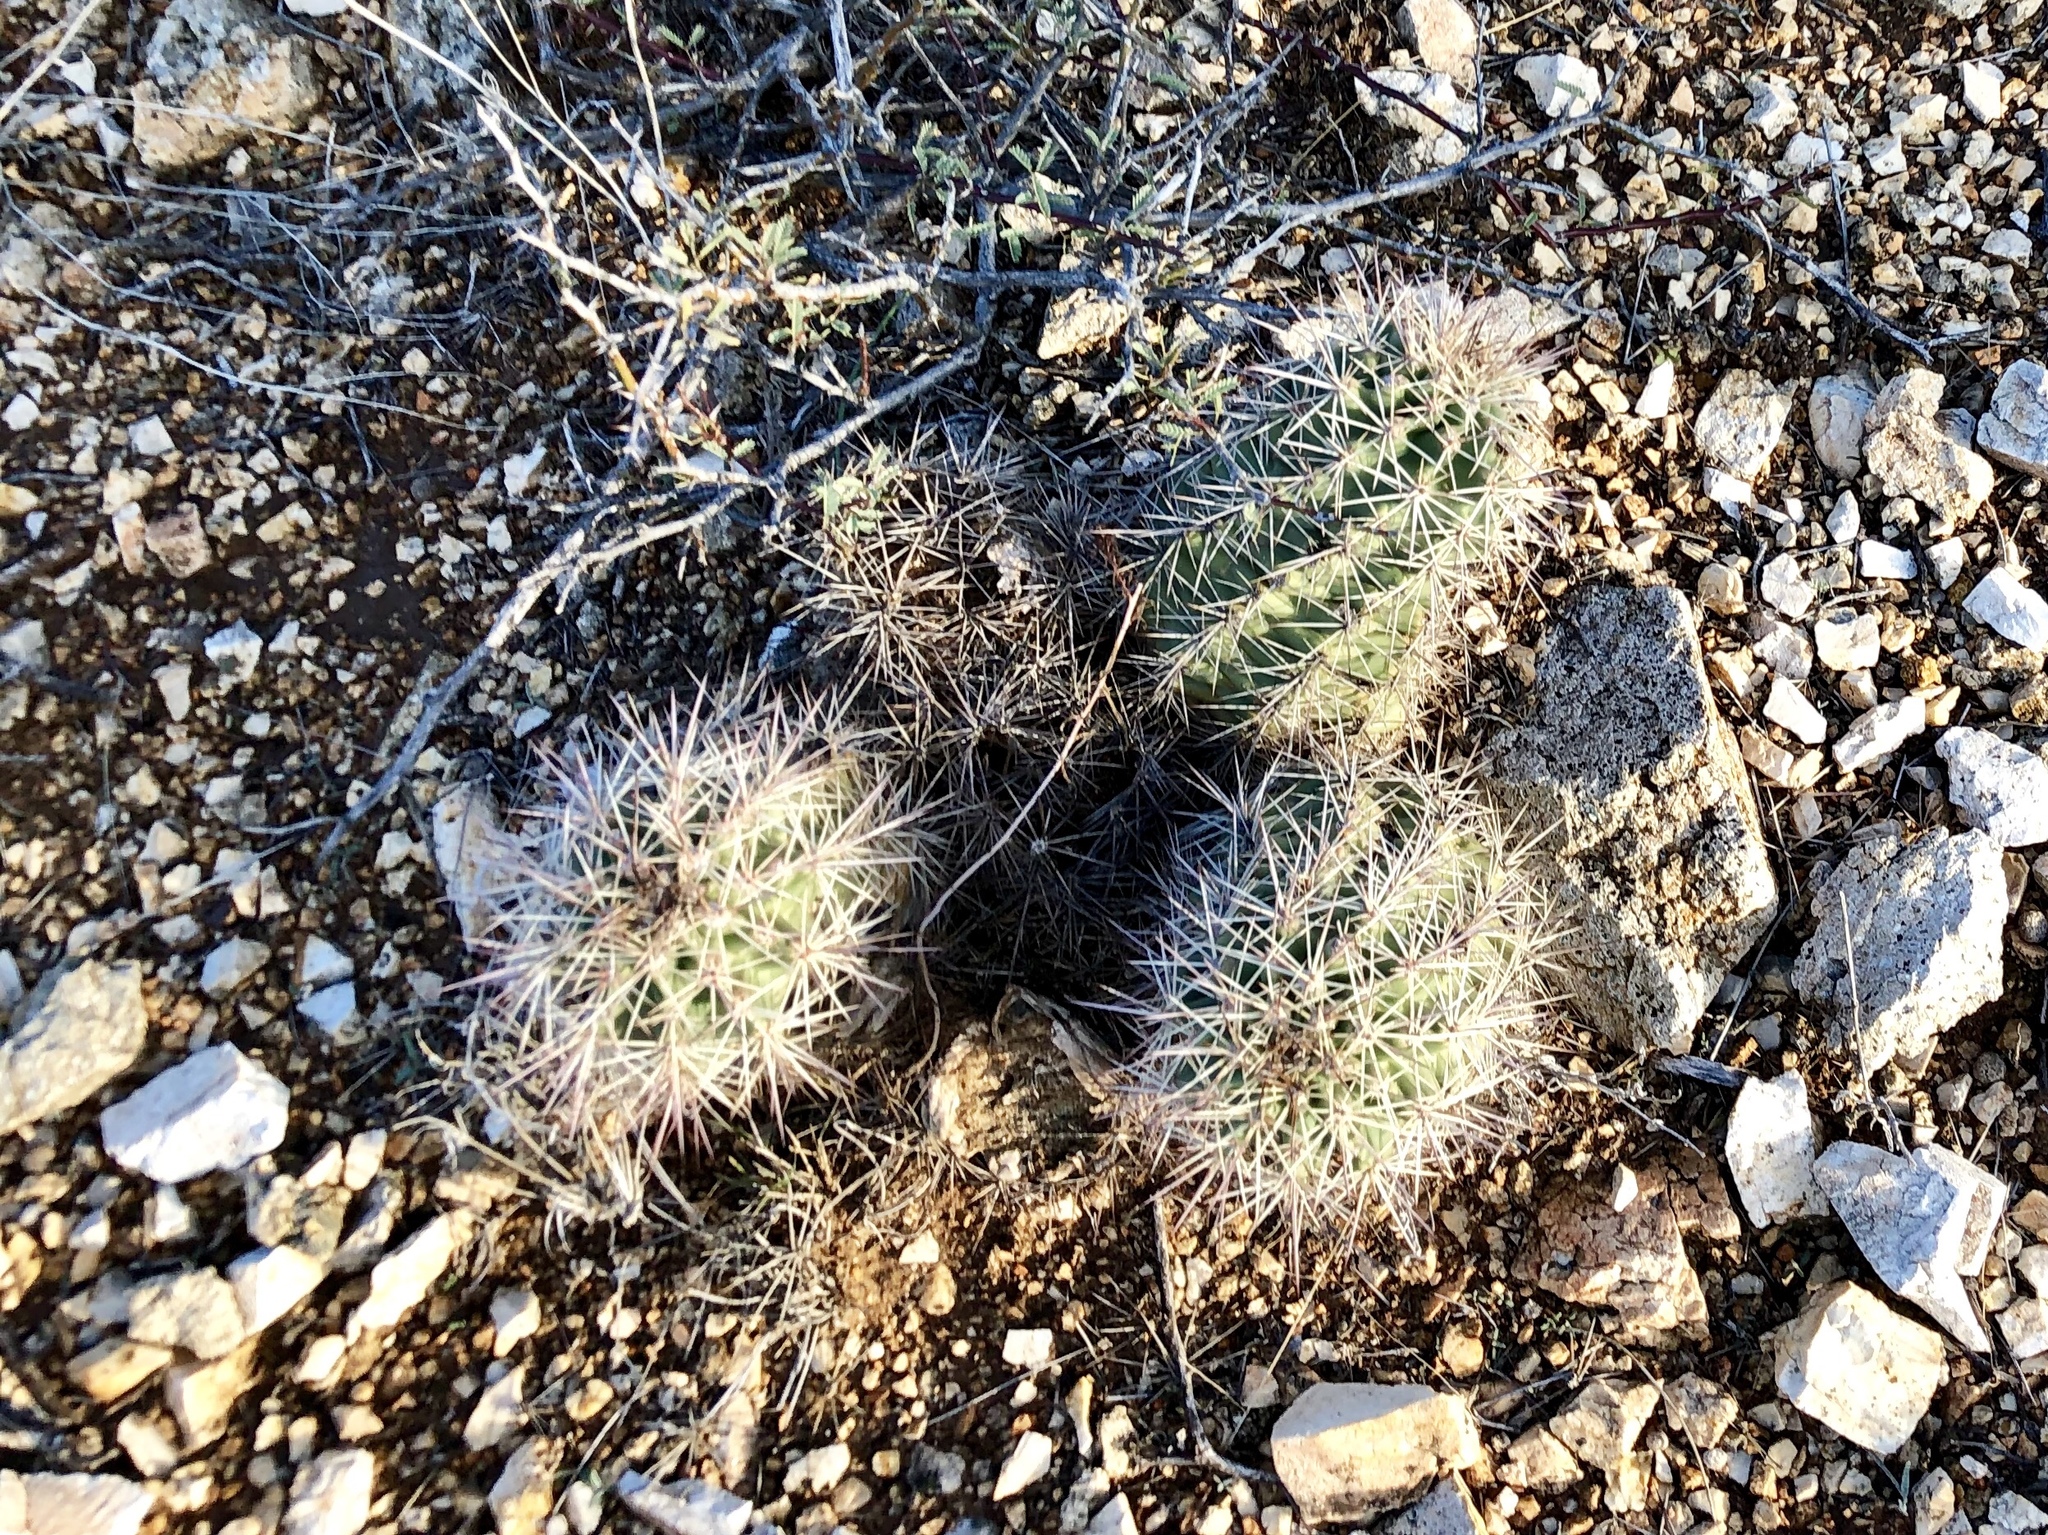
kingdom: Plantae
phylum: Tracheophyta
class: Magnoliopsida
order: Caryophyllales
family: Cactaceae
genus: Echinocereus
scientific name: Echinocereus coccineus
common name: Scarlet hedgehog cactus
